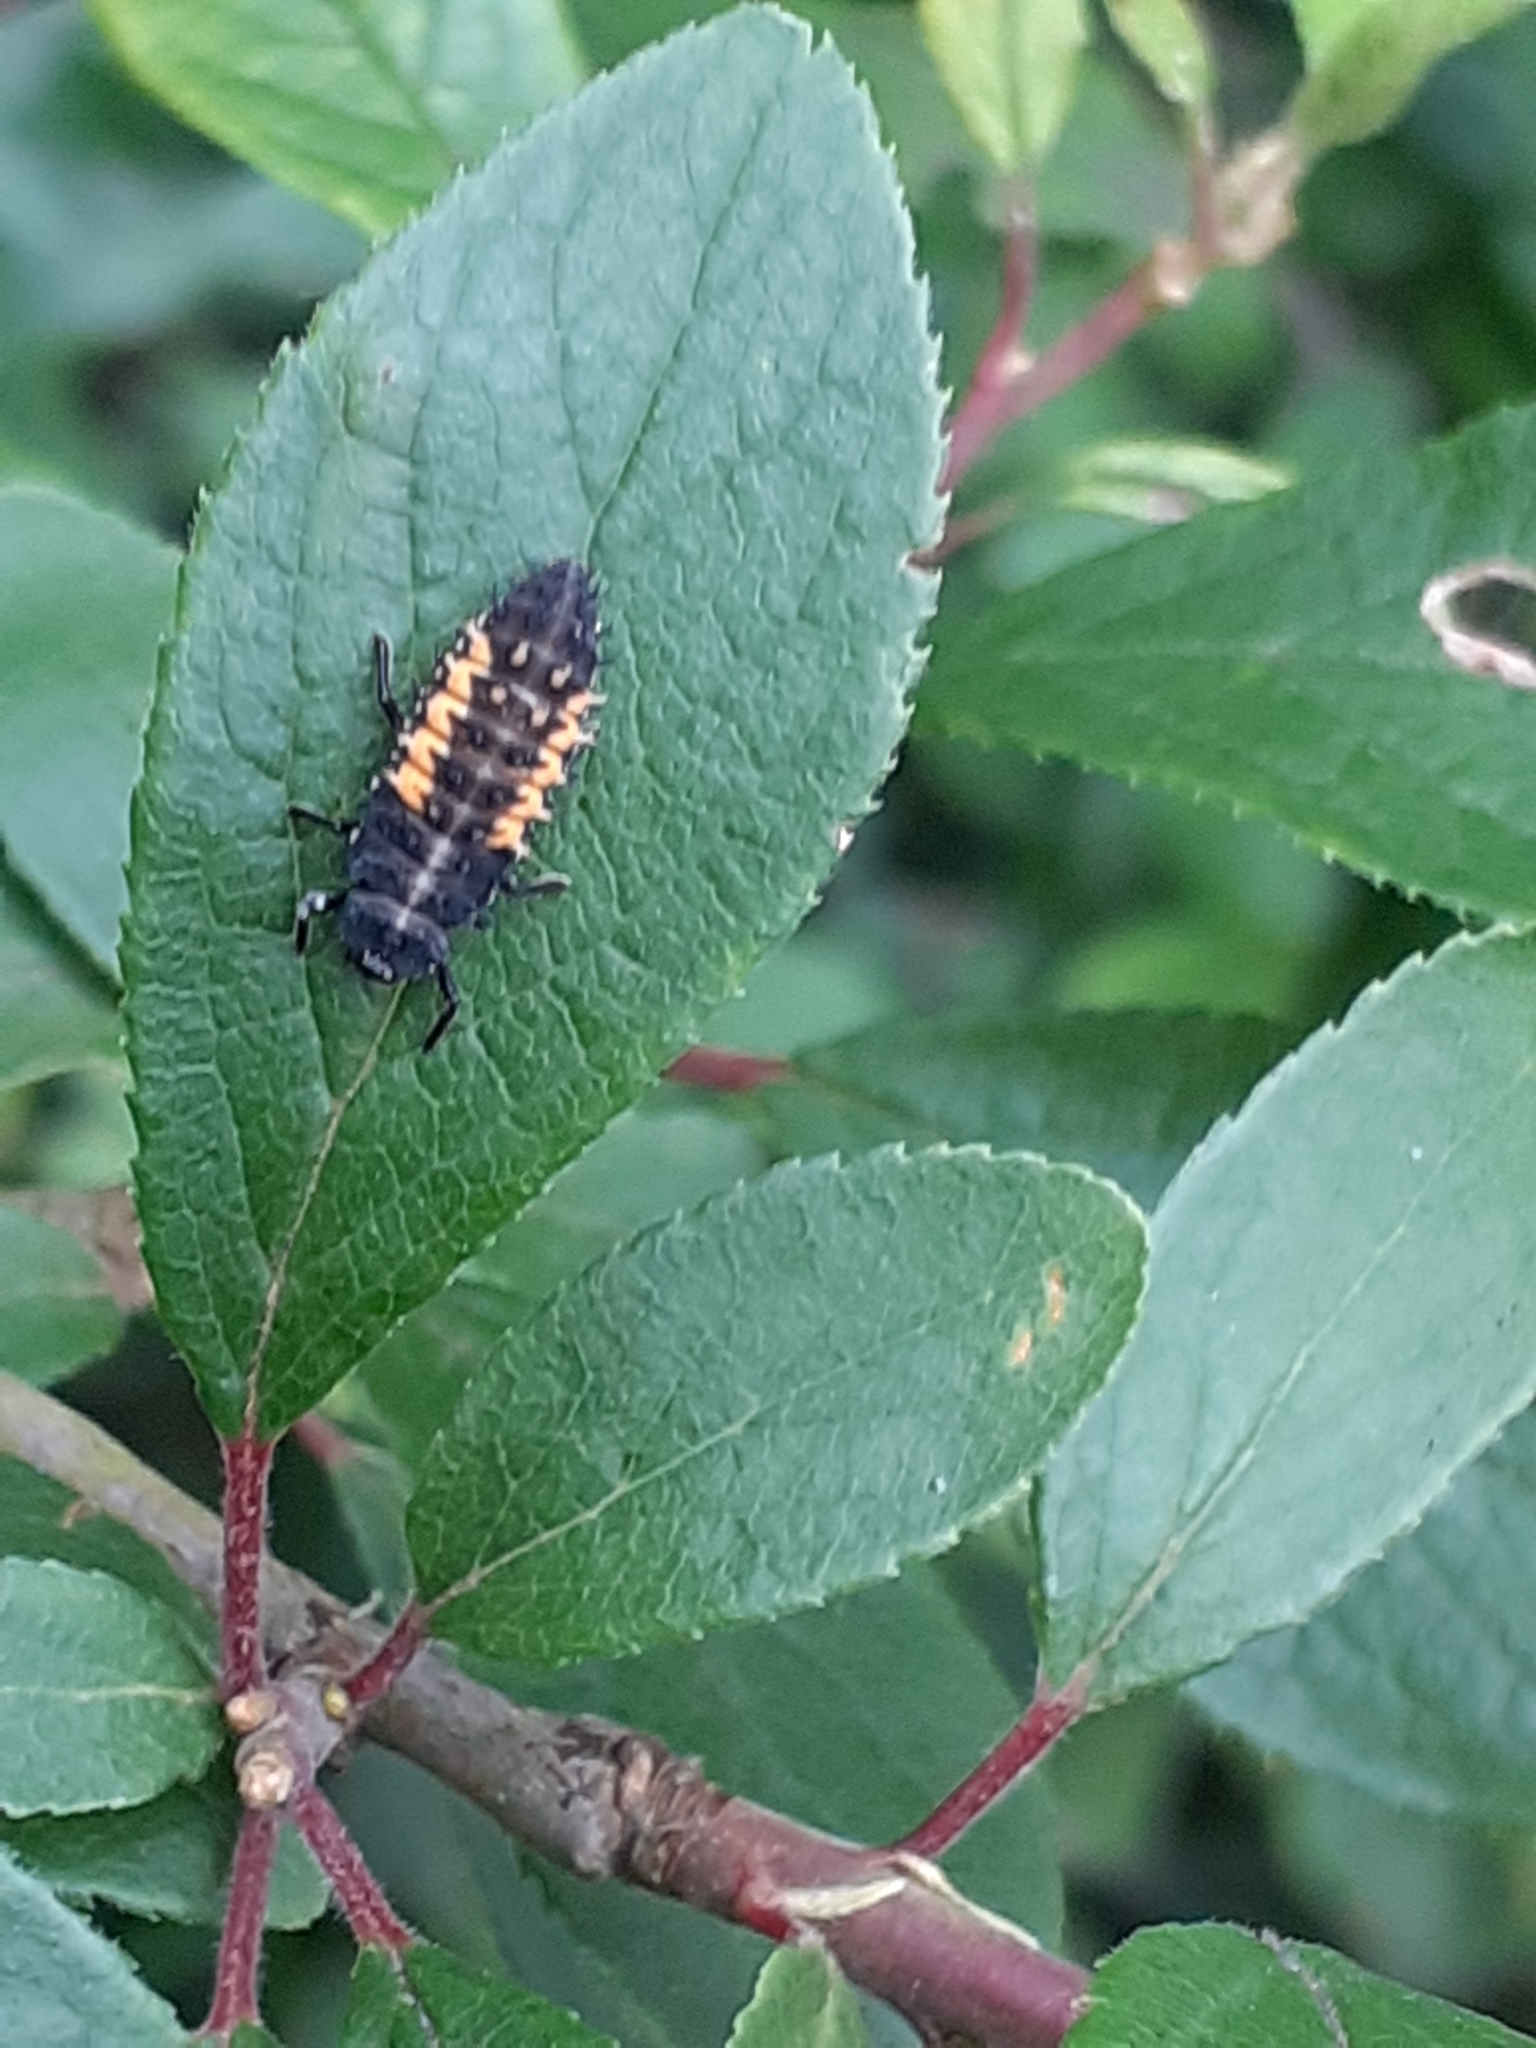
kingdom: Animalia
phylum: Arthropoda
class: Insecta
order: Coleoptera
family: Coccinellidae
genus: Harmonia
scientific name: Harmonia axyridis
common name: Harlequin ladybird
